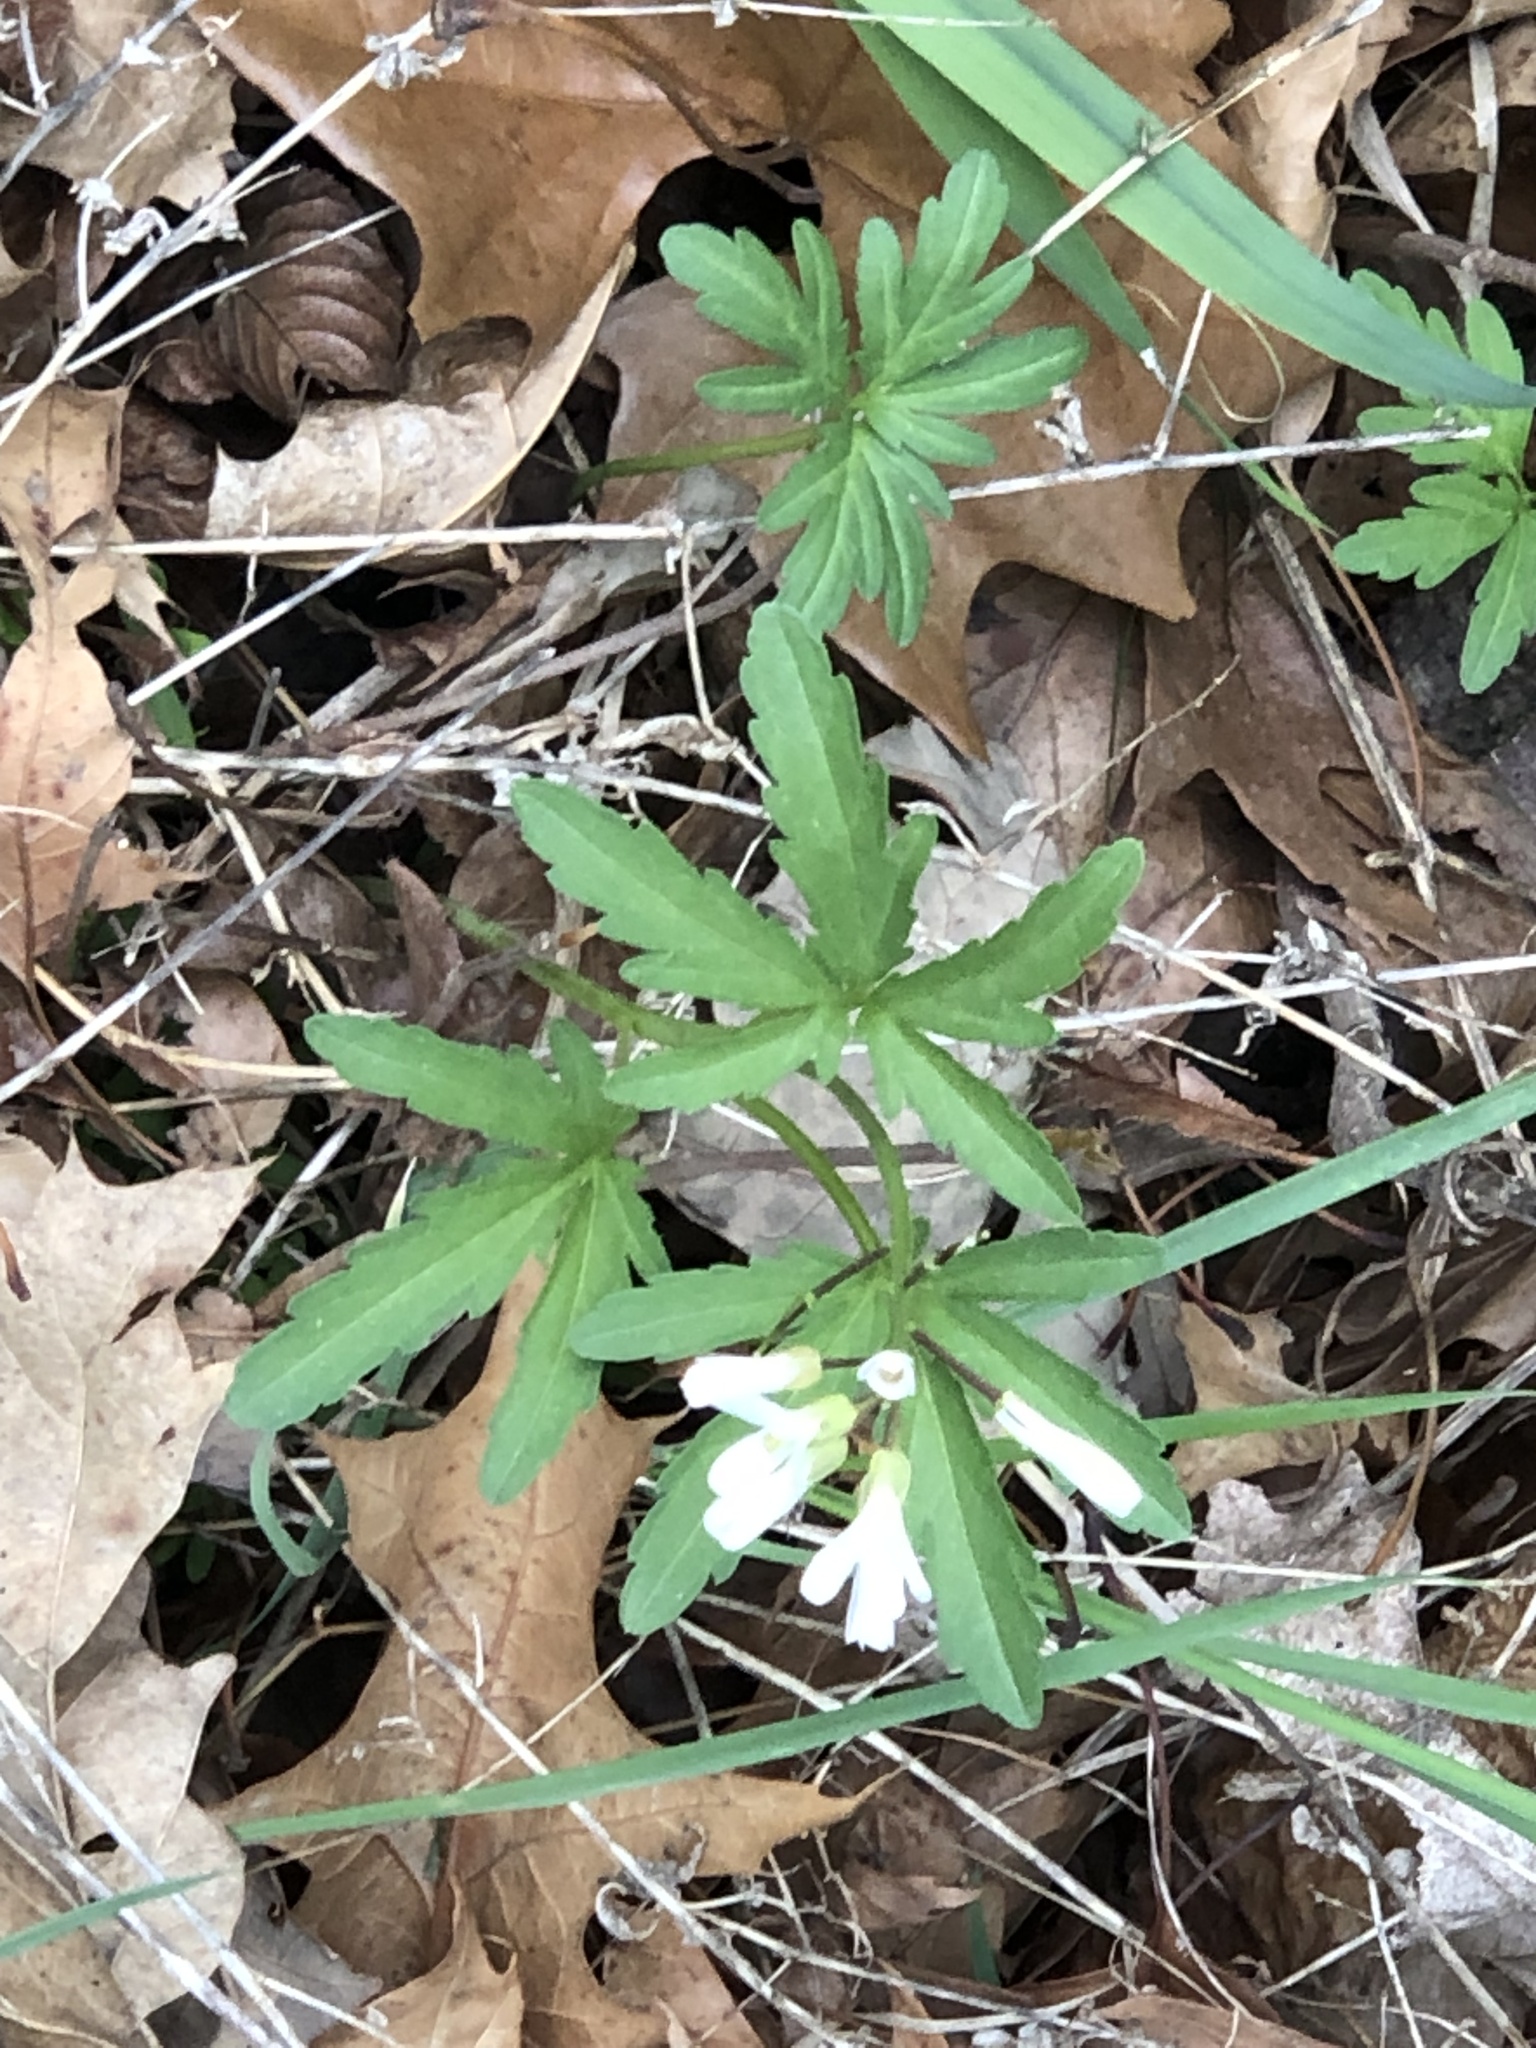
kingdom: Plantae
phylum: Tracheophyta
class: Magnoliopsida
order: Brassicales
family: Brassicaceae
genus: Cardamine
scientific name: Cardamine concatenata
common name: Cut-leaf toothcup
